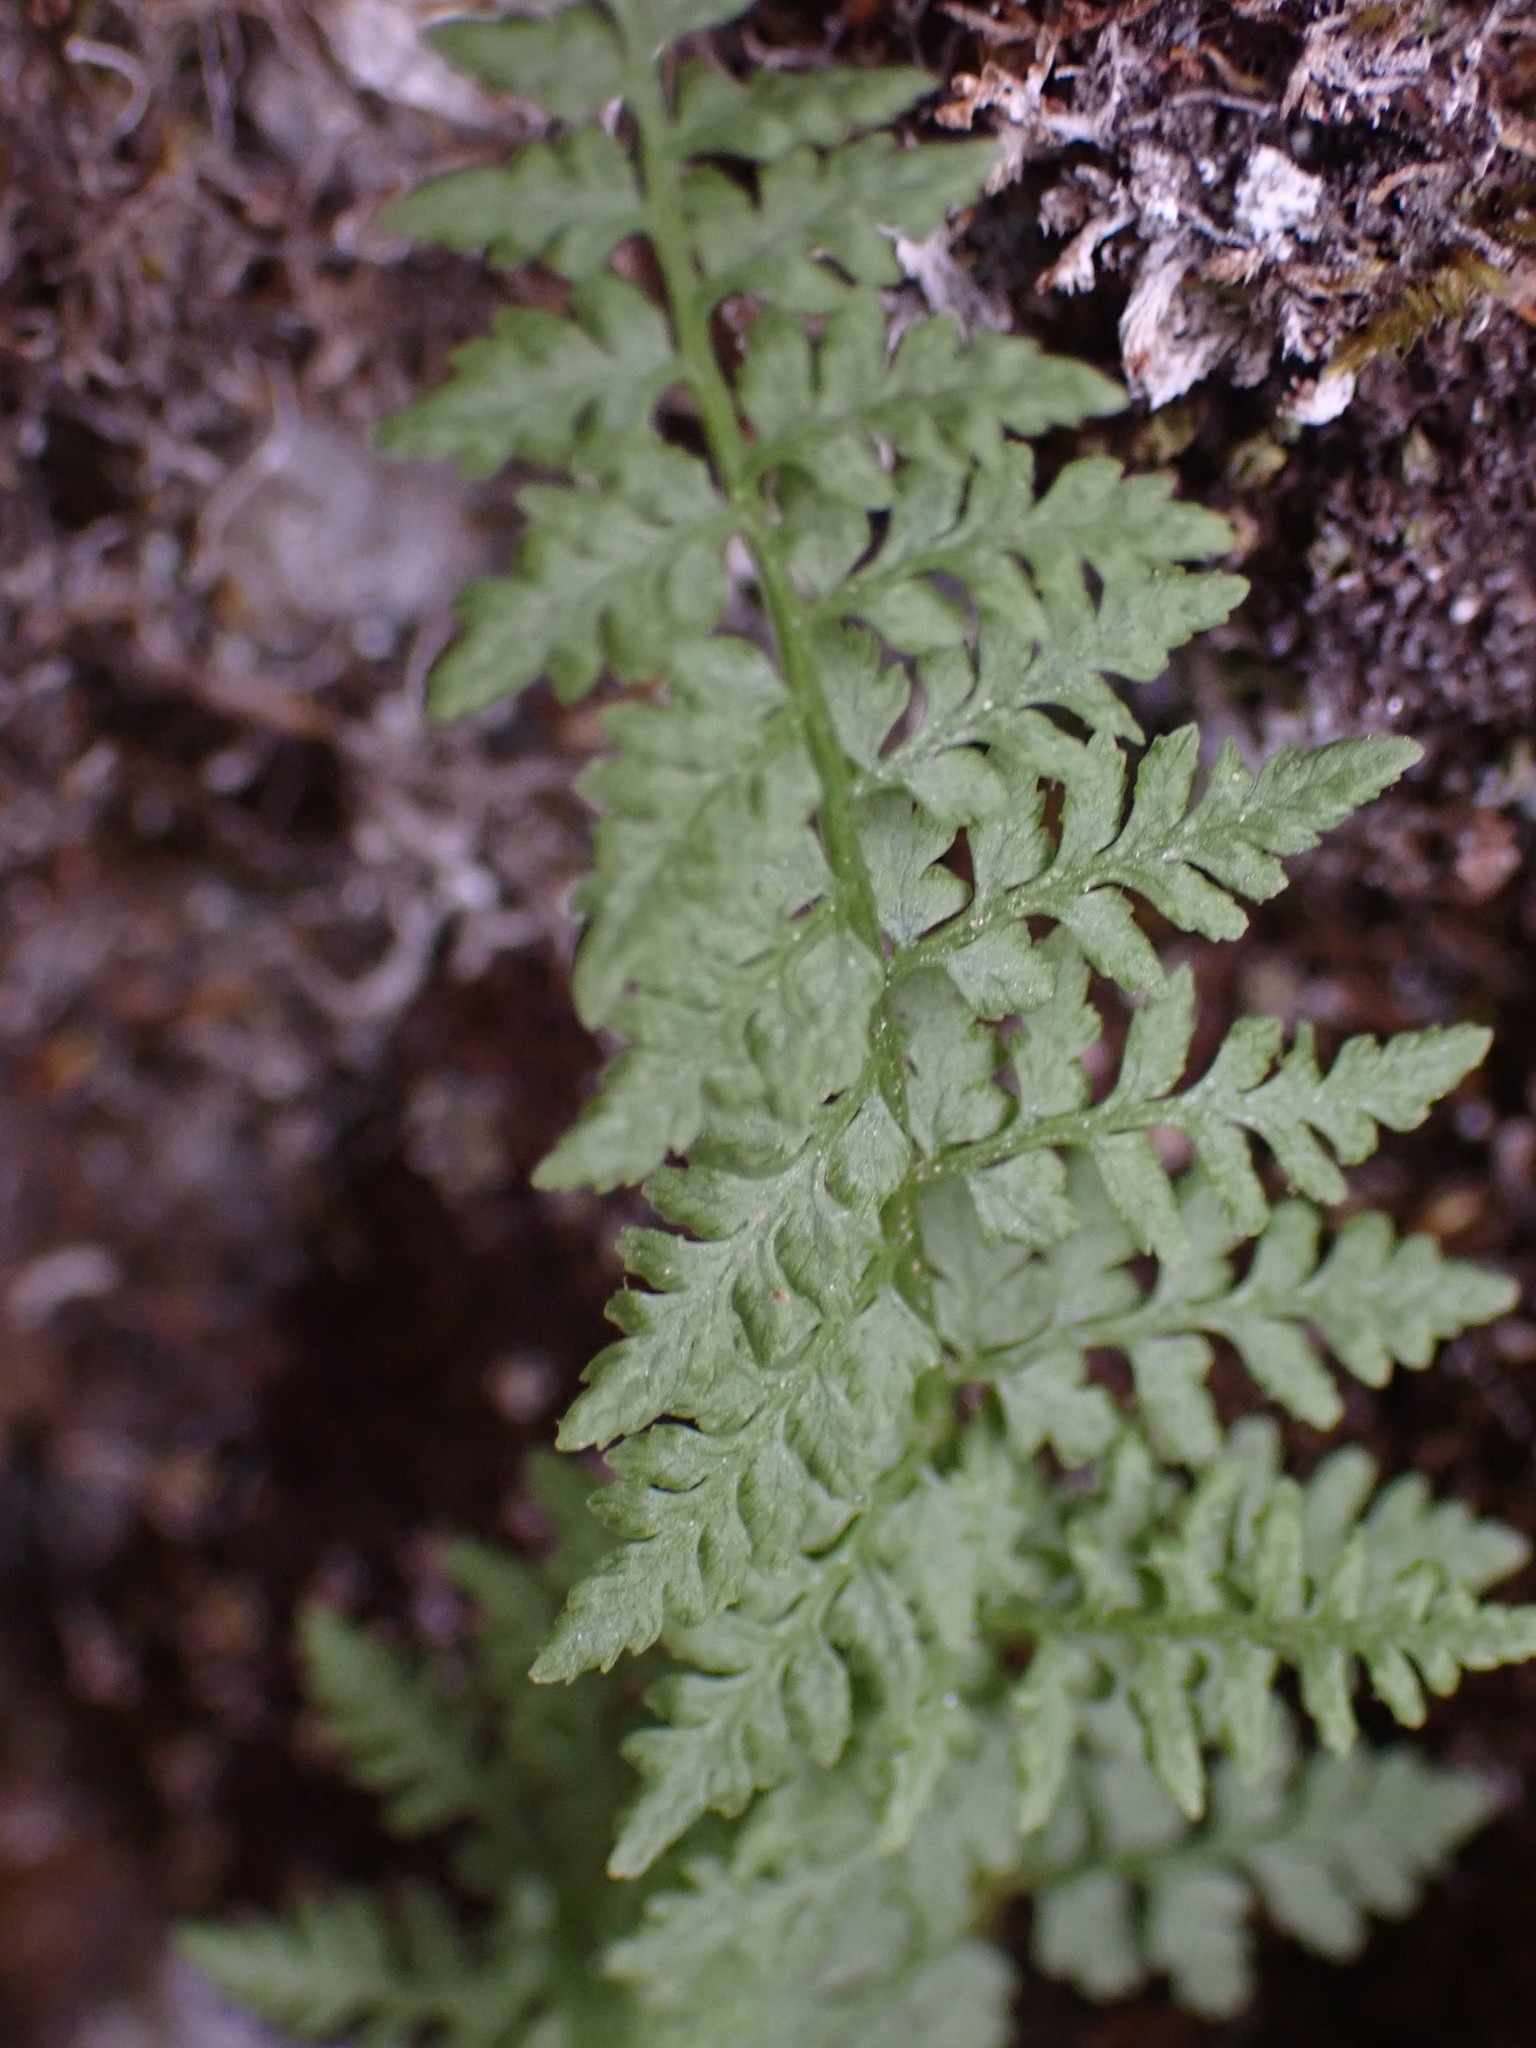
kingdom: Plantae
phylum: Tracheophyta
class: Polypodiopsida
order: Polypodiales
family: Cystopteridaceae
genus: Cystopteris
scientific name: Cystopteris fragilis
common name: Brittle bladder fern
